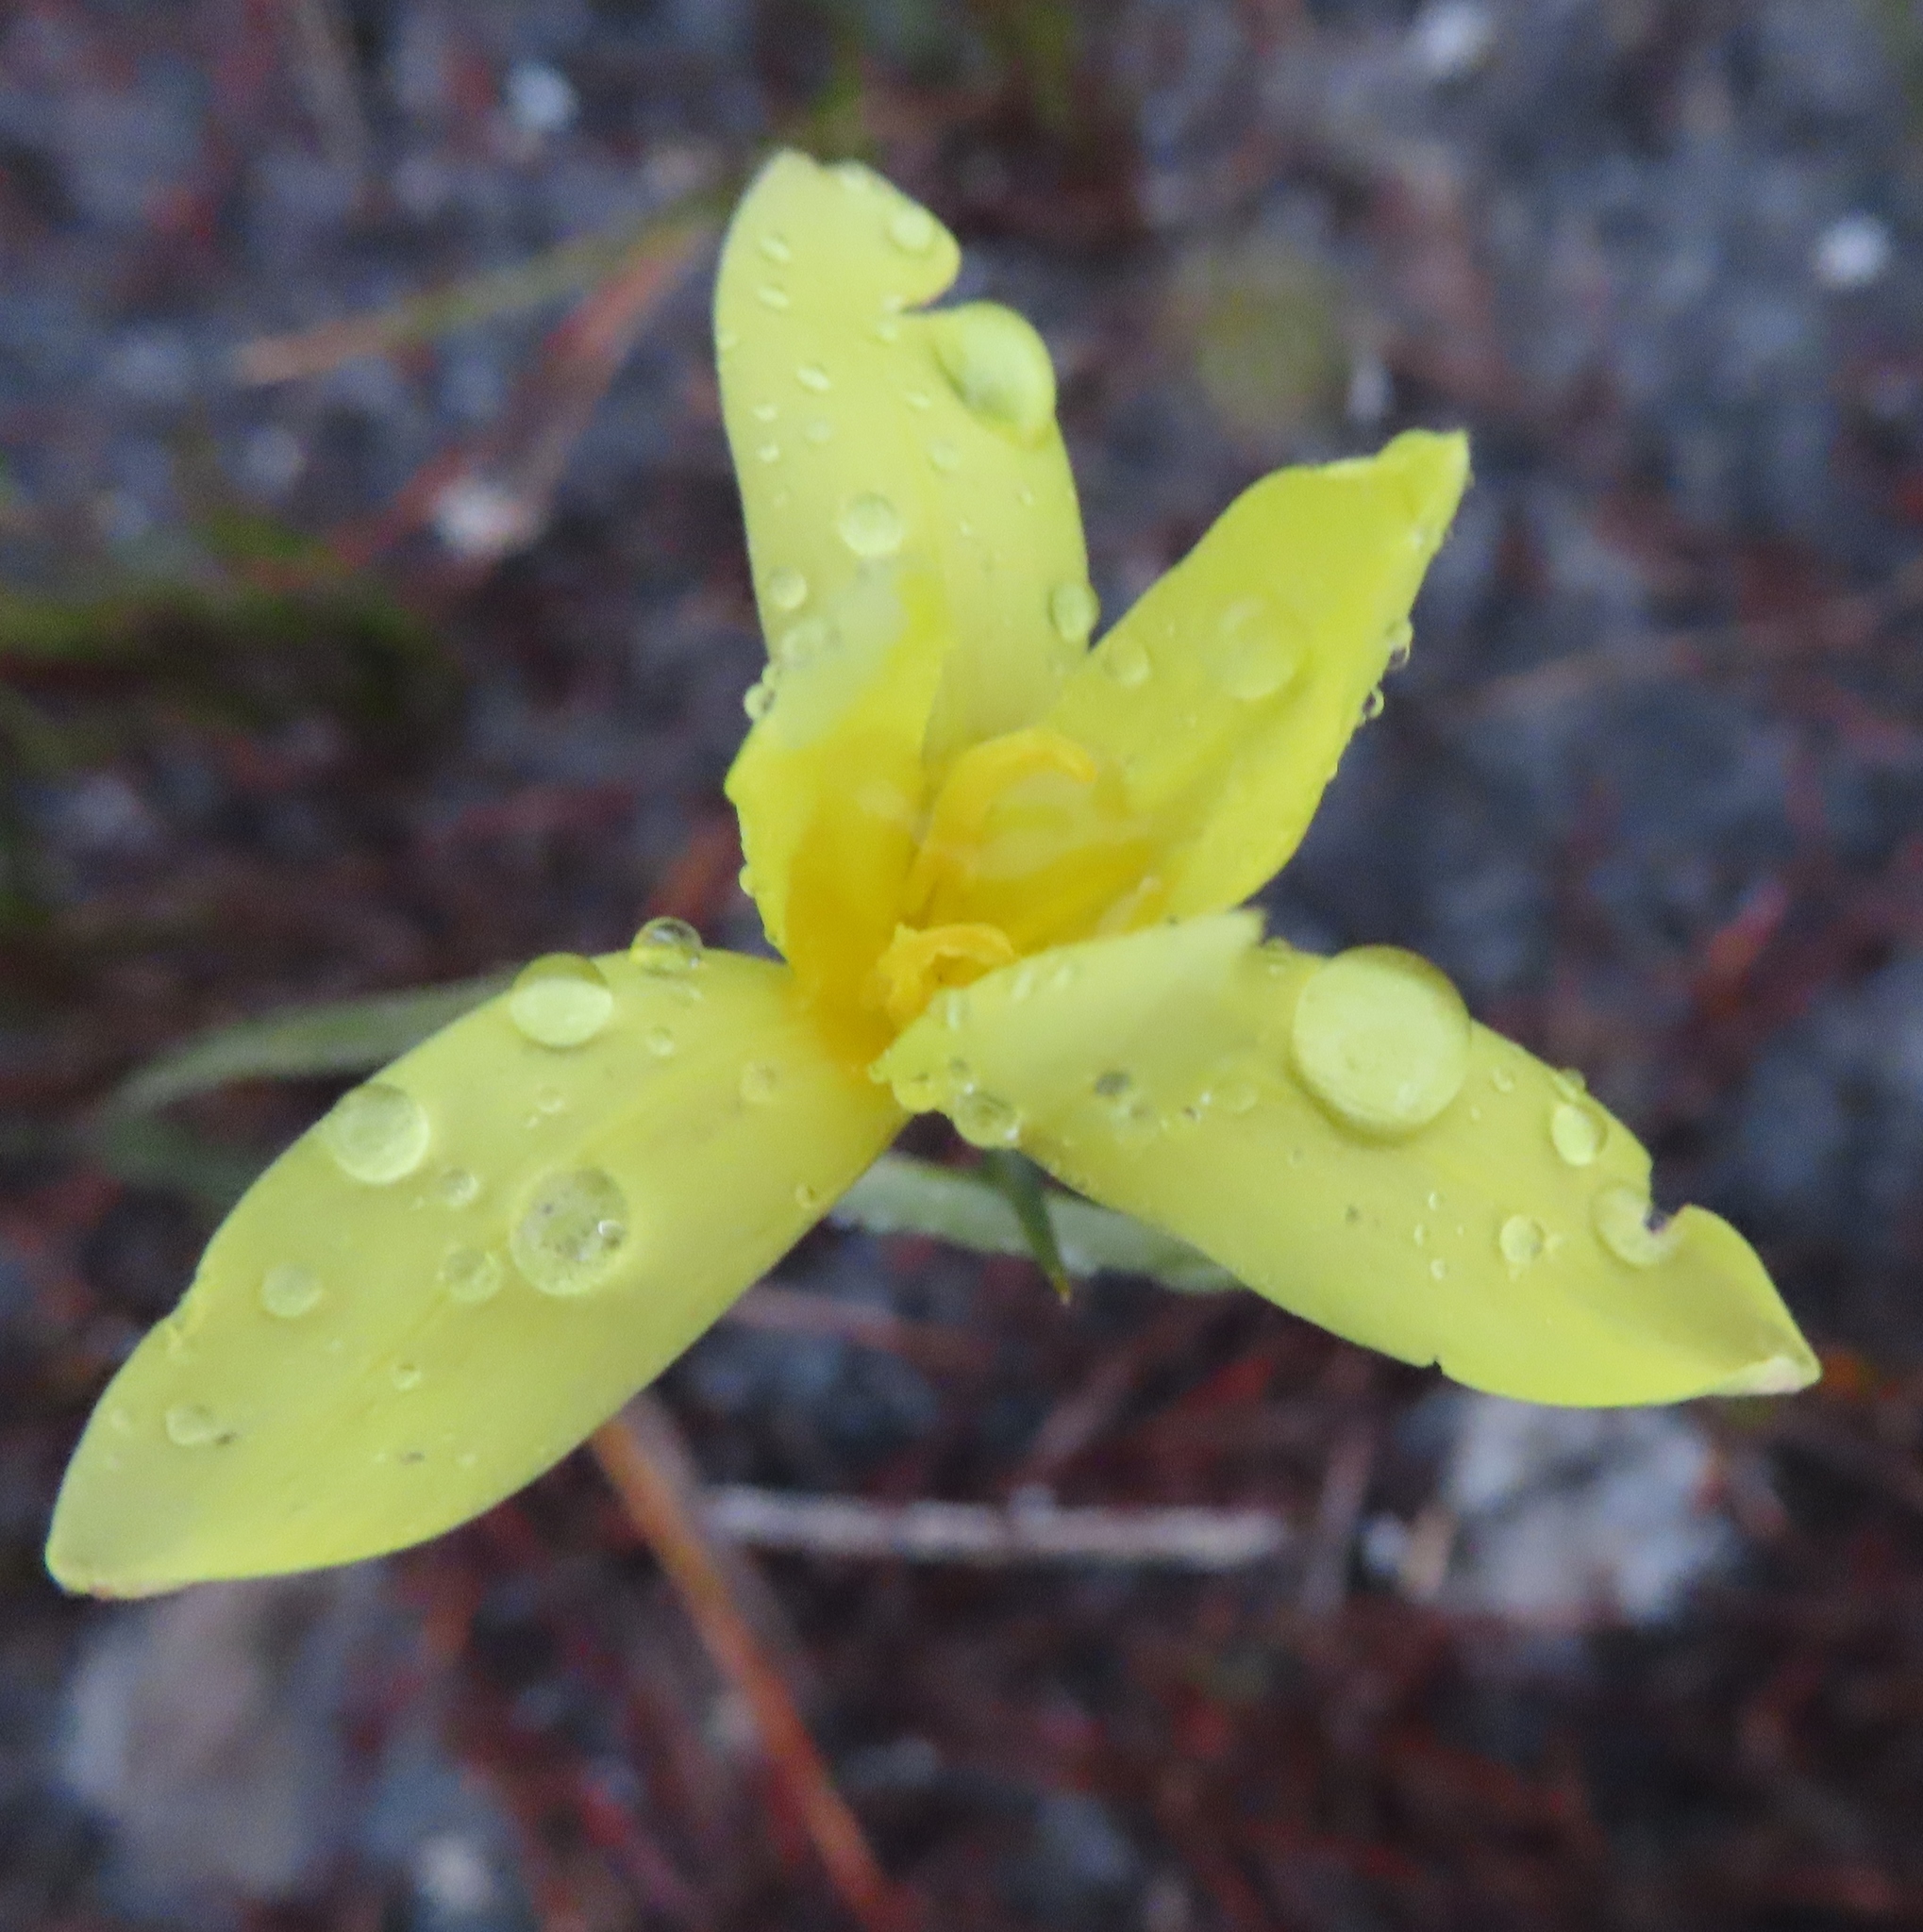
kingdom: Plantae
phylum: Tracheophyta
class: Liliopsida
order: Asparagales
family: Iridaceae
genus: Bobartia
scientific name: Bobartia filiformis
